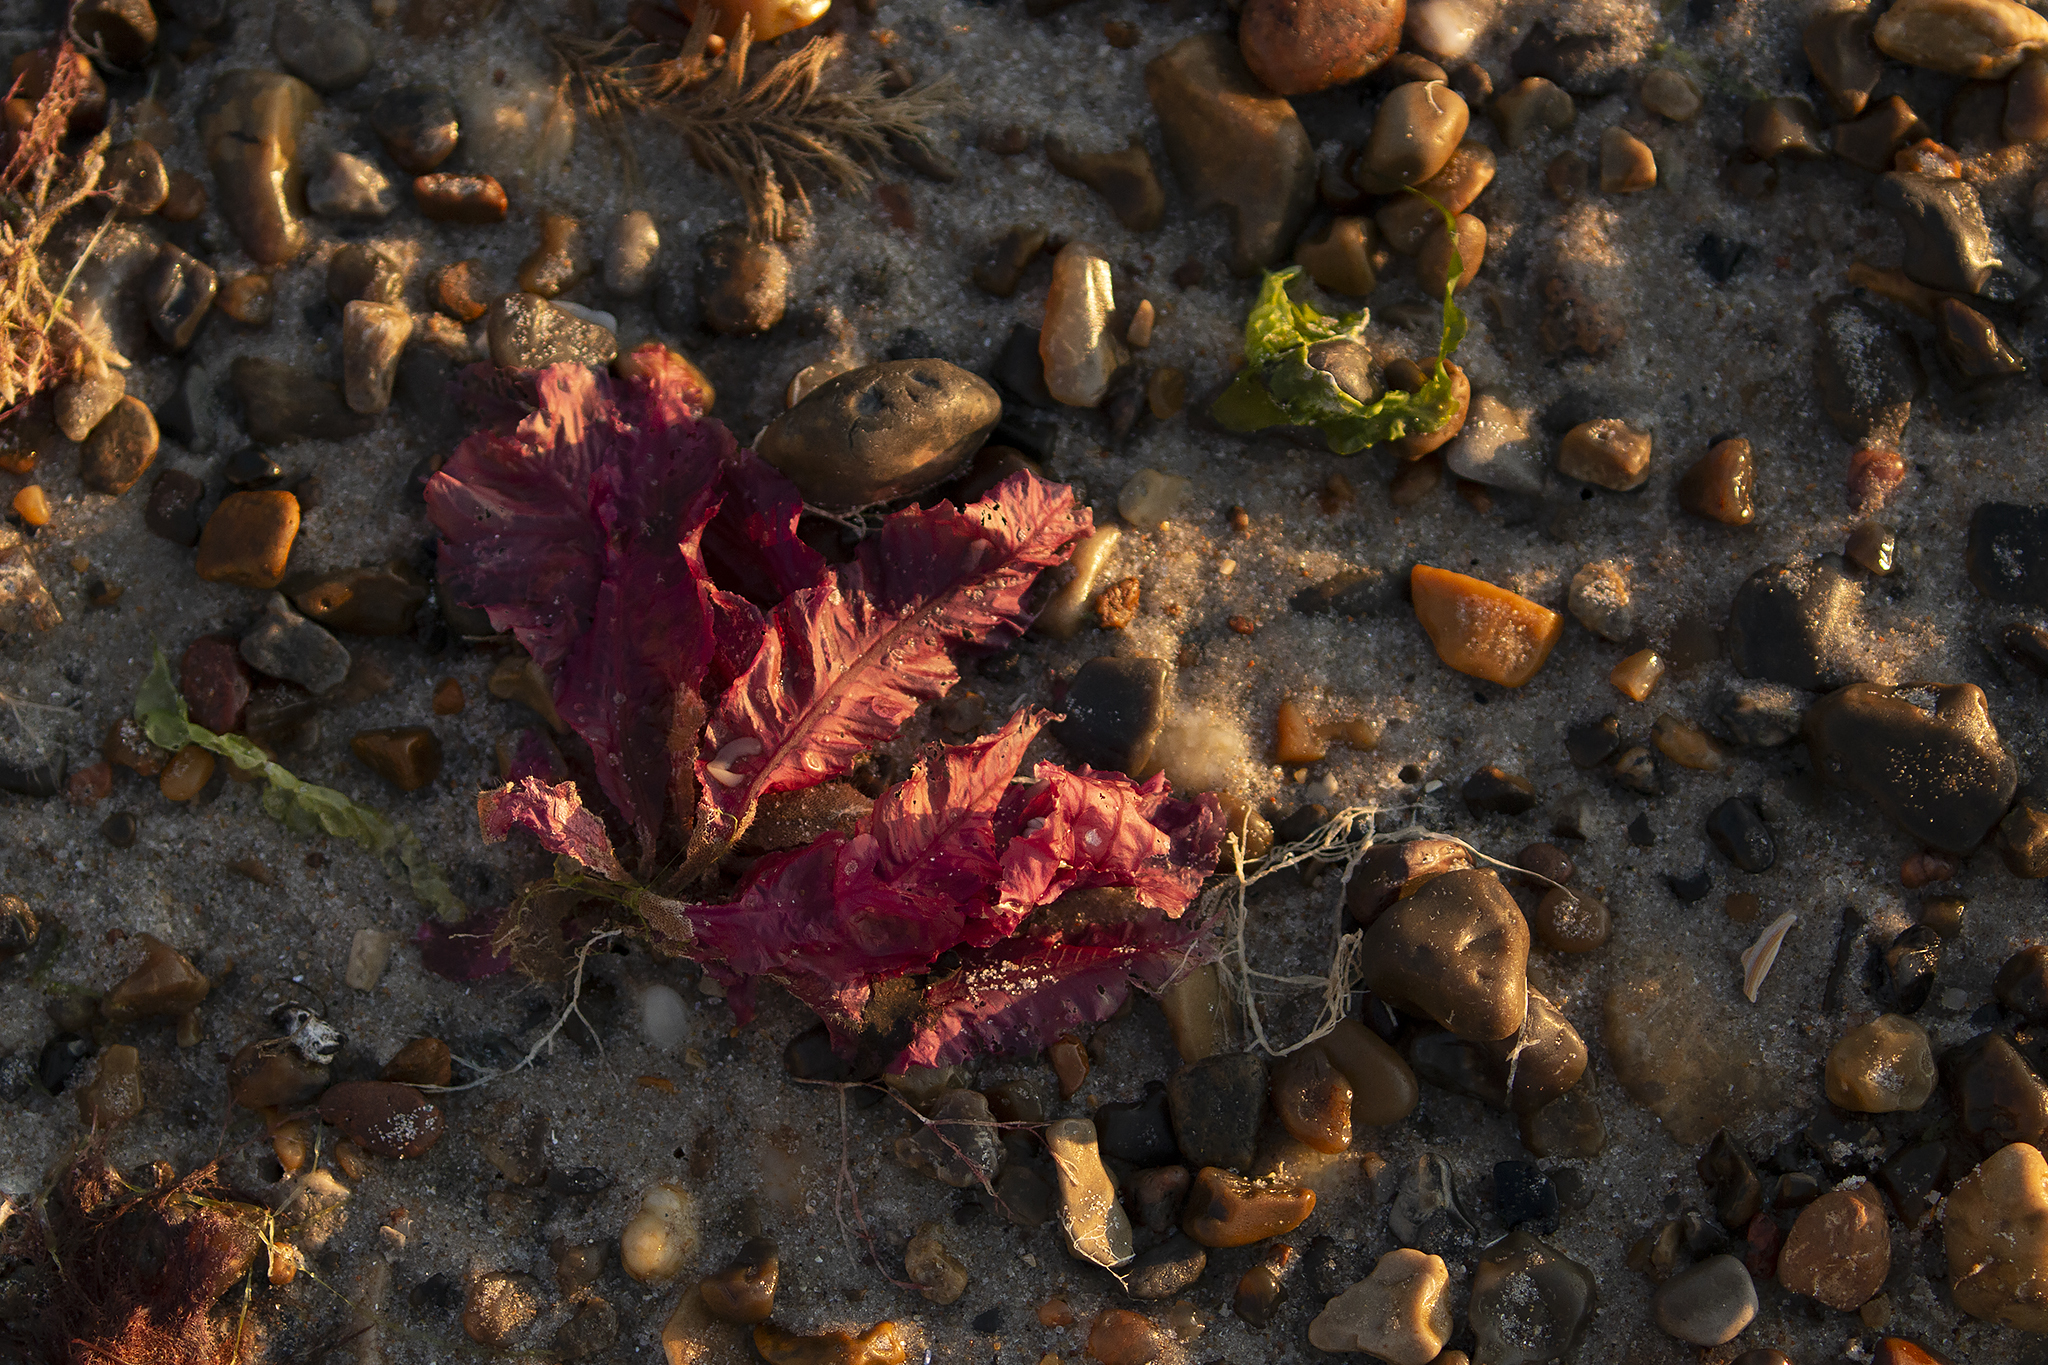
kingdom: Plantae
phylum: Rhodophyta
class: Florideophyceae
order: Ceramiales
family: Delesseriaceae
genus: Delesseria
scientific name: Delesseria sanguinea
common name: Sea beech
